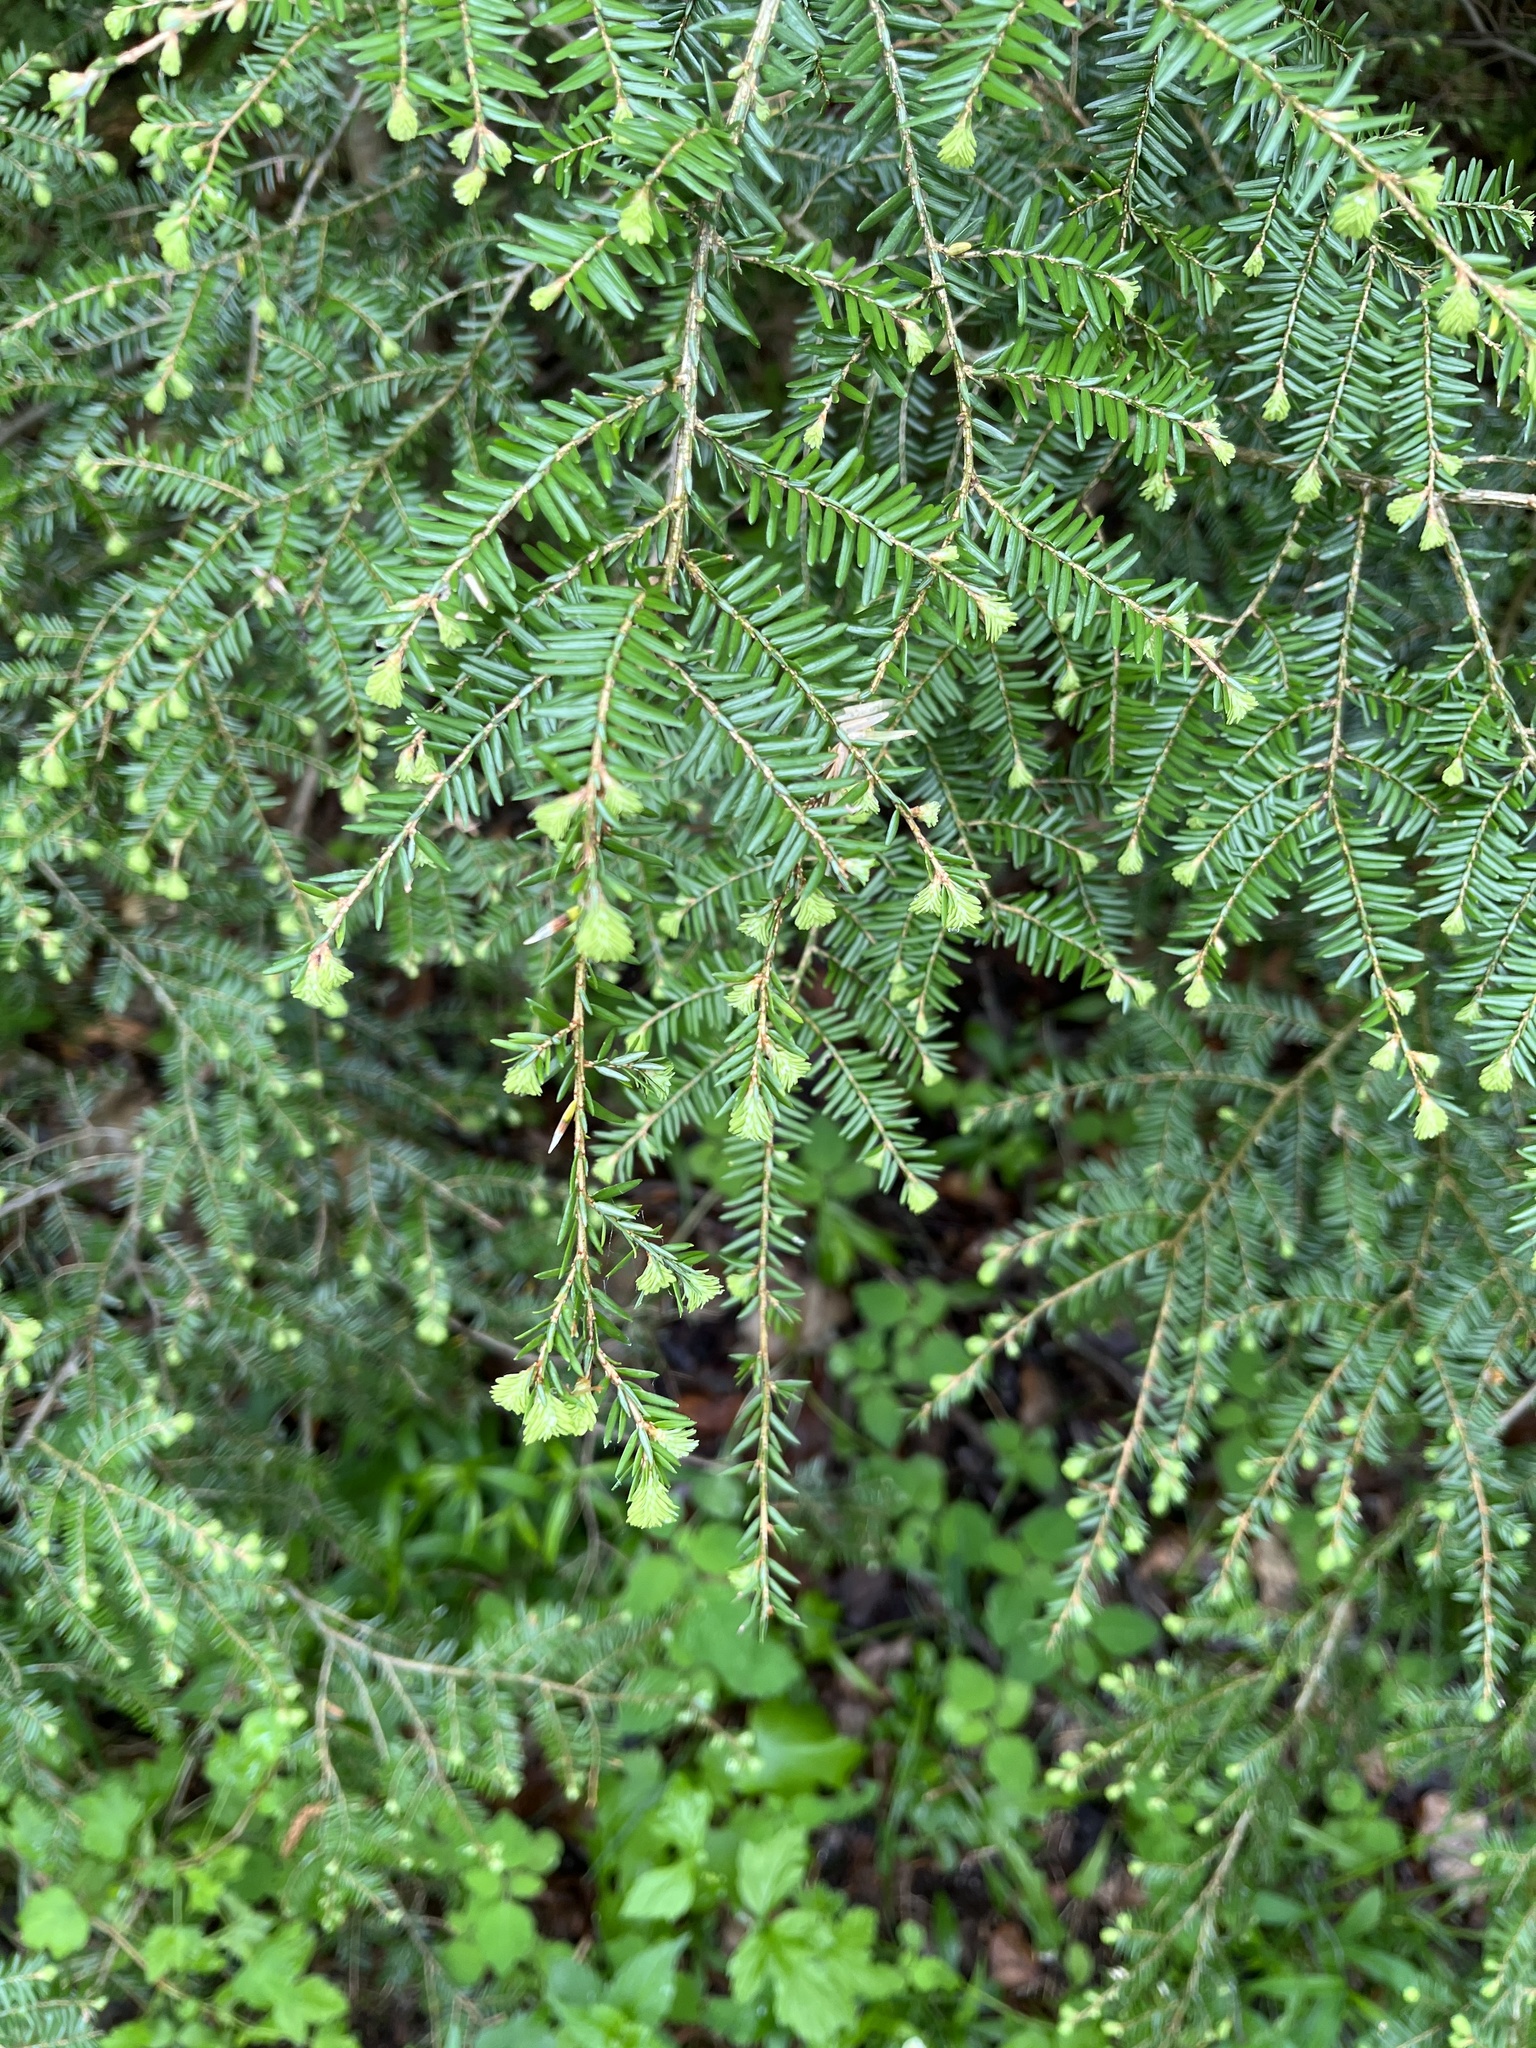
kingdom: Plantae
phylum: Tracheophyta
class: Pinopsida
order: Pinales
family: Pinaceae
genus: Tsuga
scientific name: Tsuga canadensis
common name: Eastern hemlock
